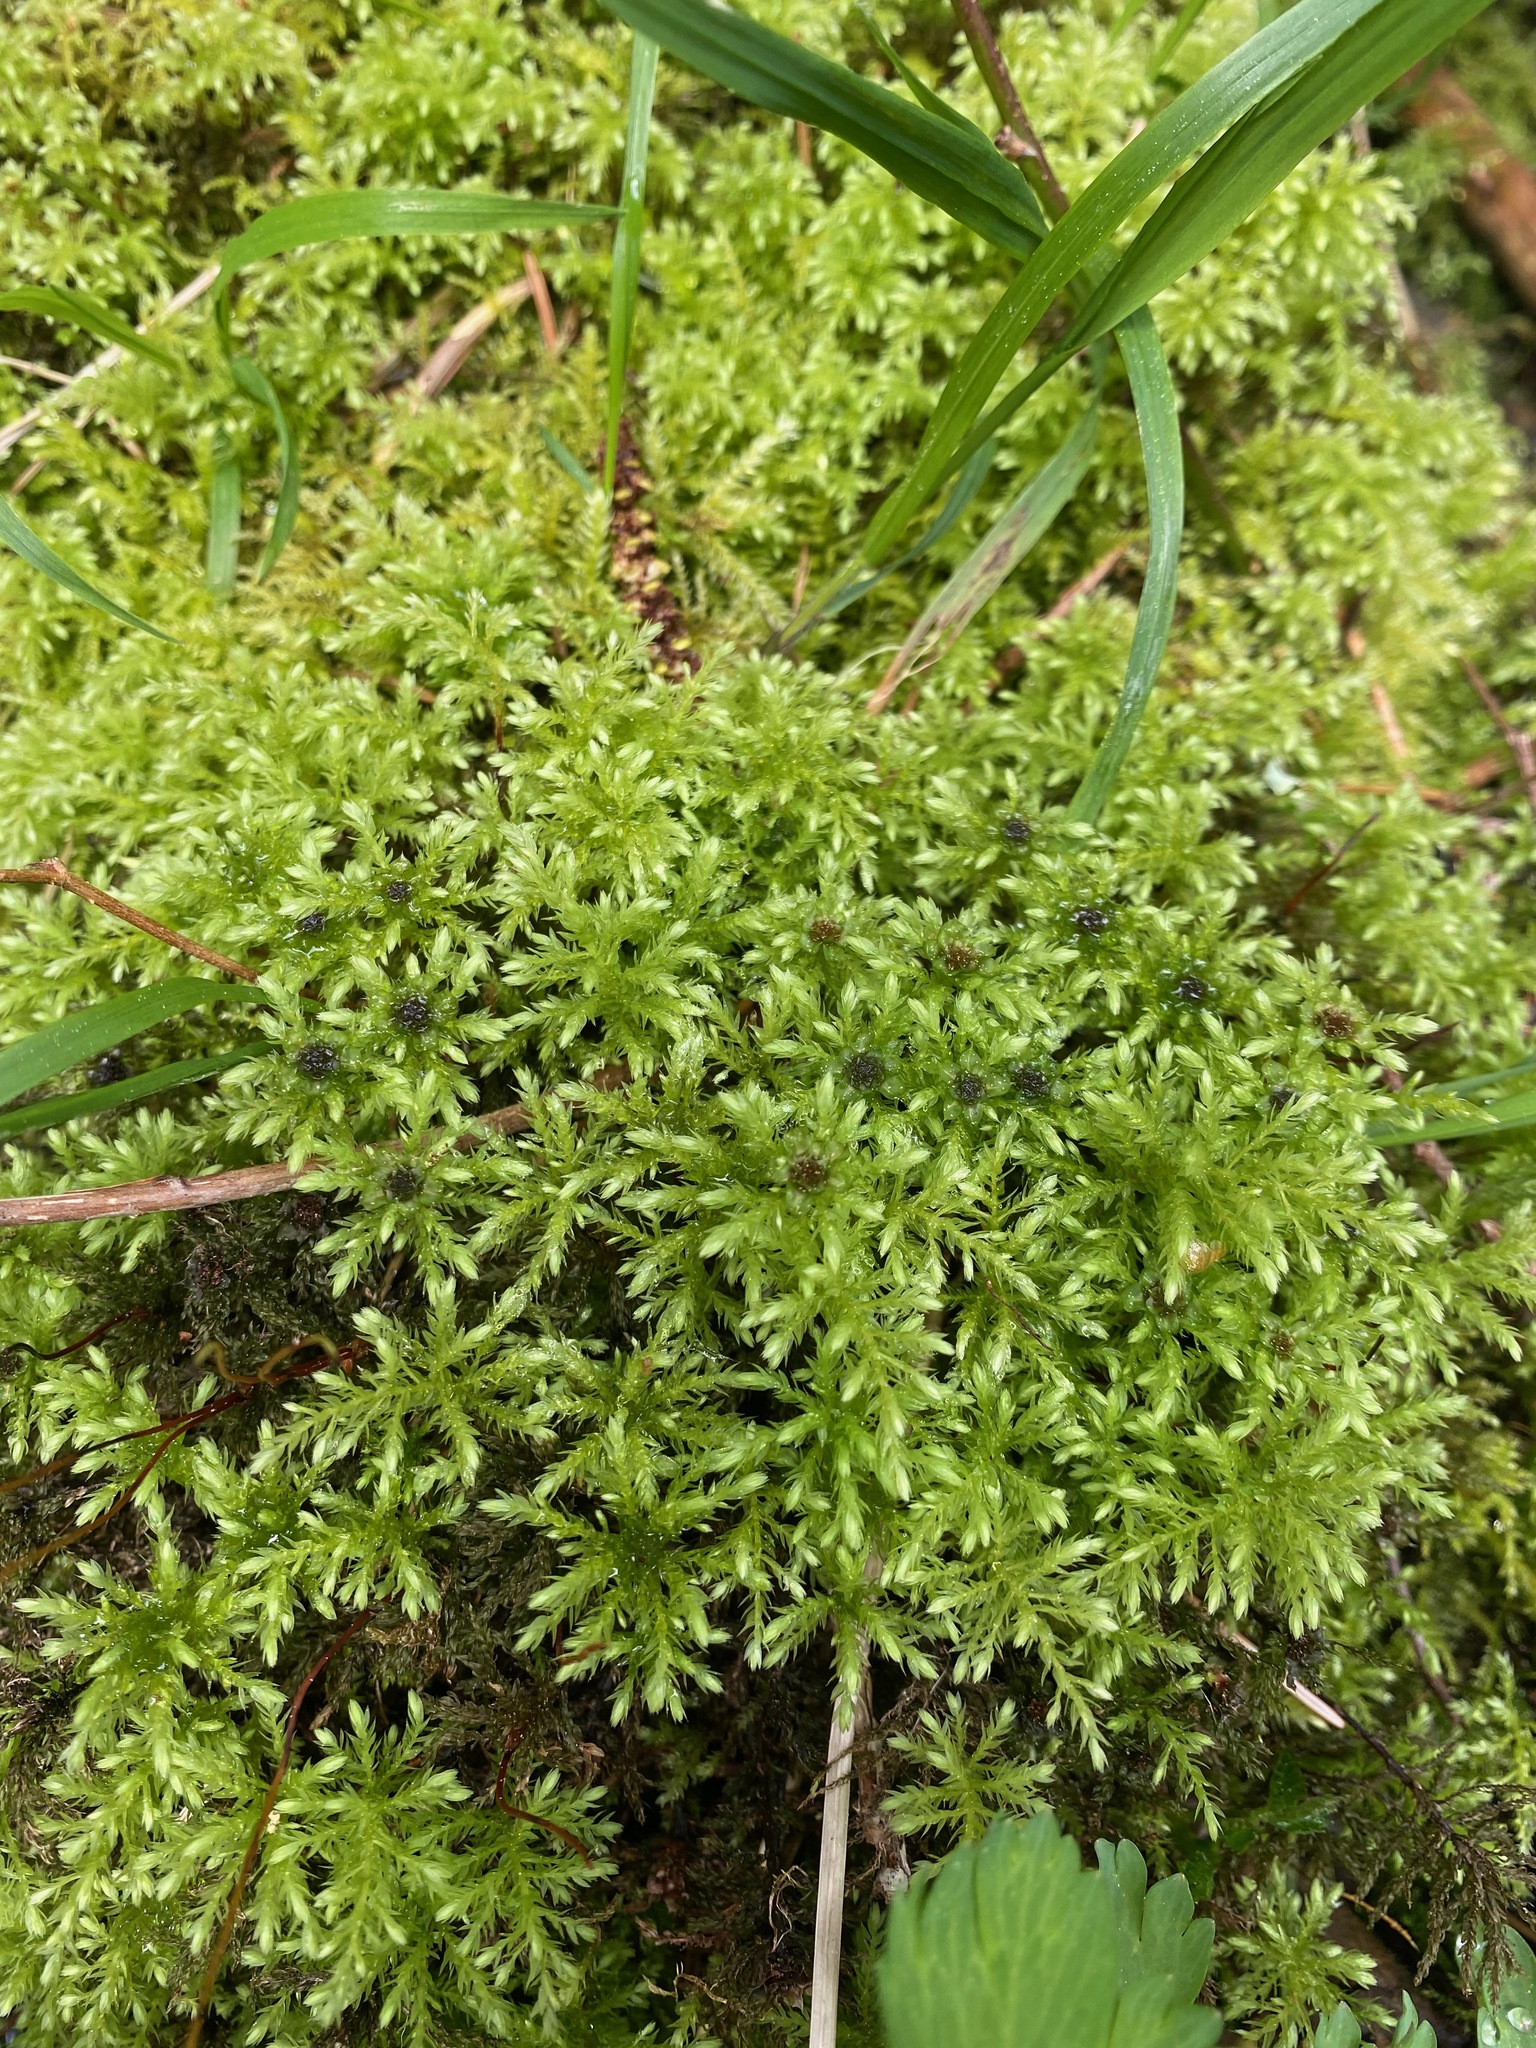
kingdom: Plantae
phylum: Bryophyta
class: Bryopsida
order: Bryales
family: Mniaceae
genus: Leucolepis
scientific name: Leucolepis acanthoneura
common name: Leucolepis umbrella moss
